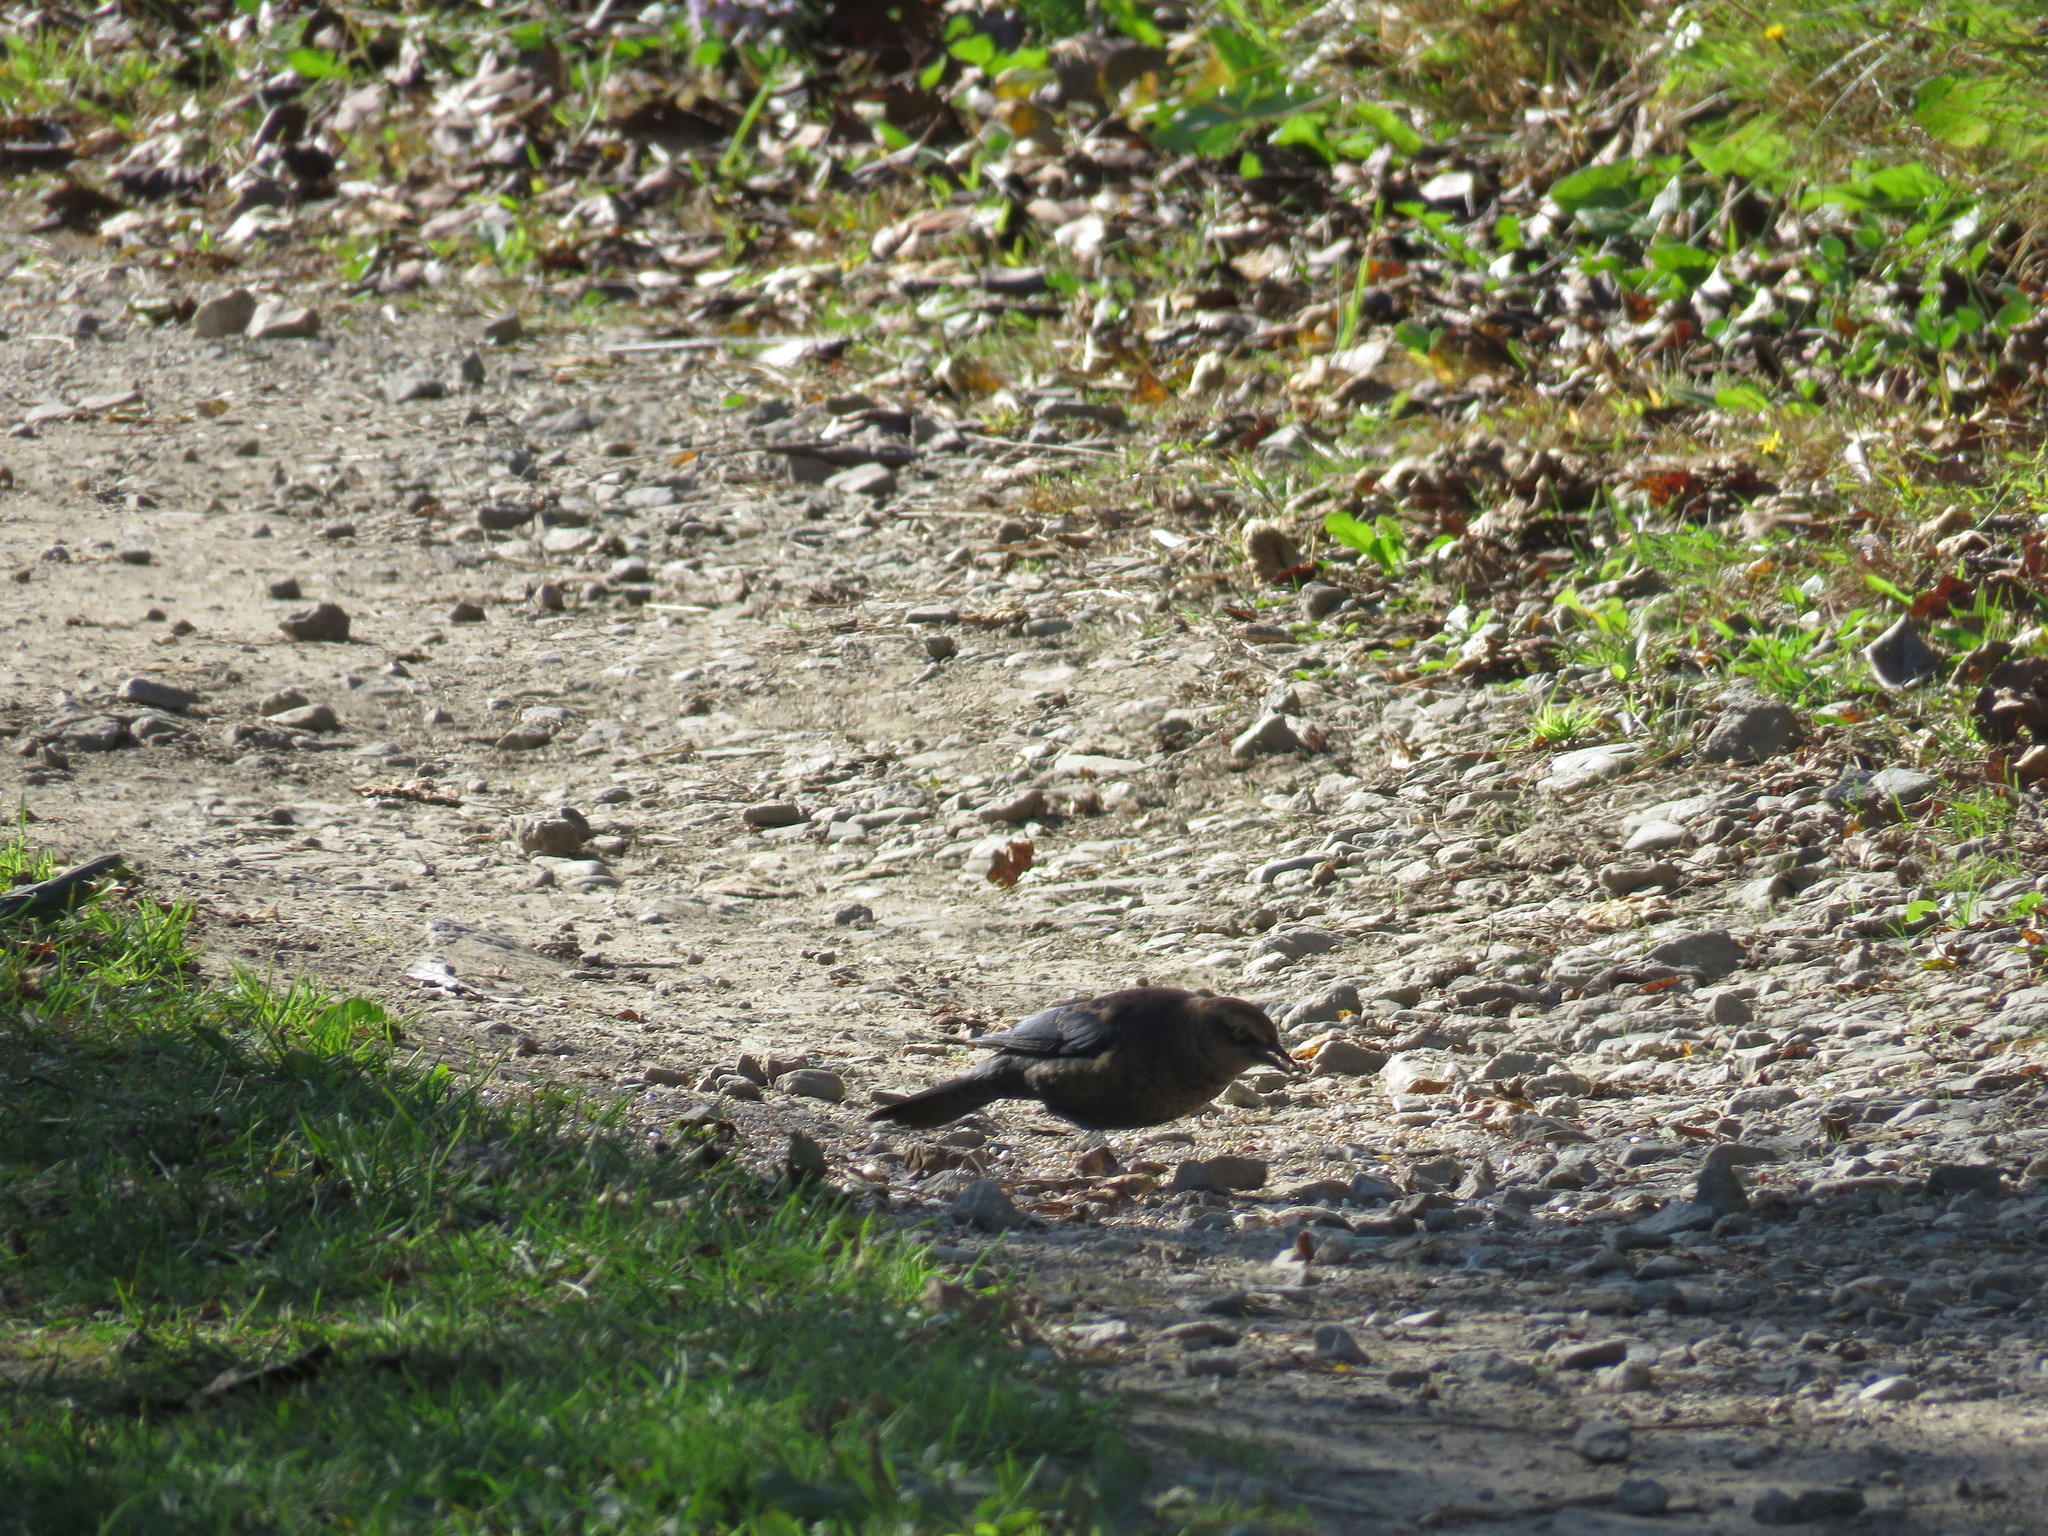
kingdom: Animalia
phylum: Chordata
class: Aves
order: Passeriformes
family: Icteridae
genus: Euphagus
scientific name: Euphagus carolinus
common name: Rusty blackbird
